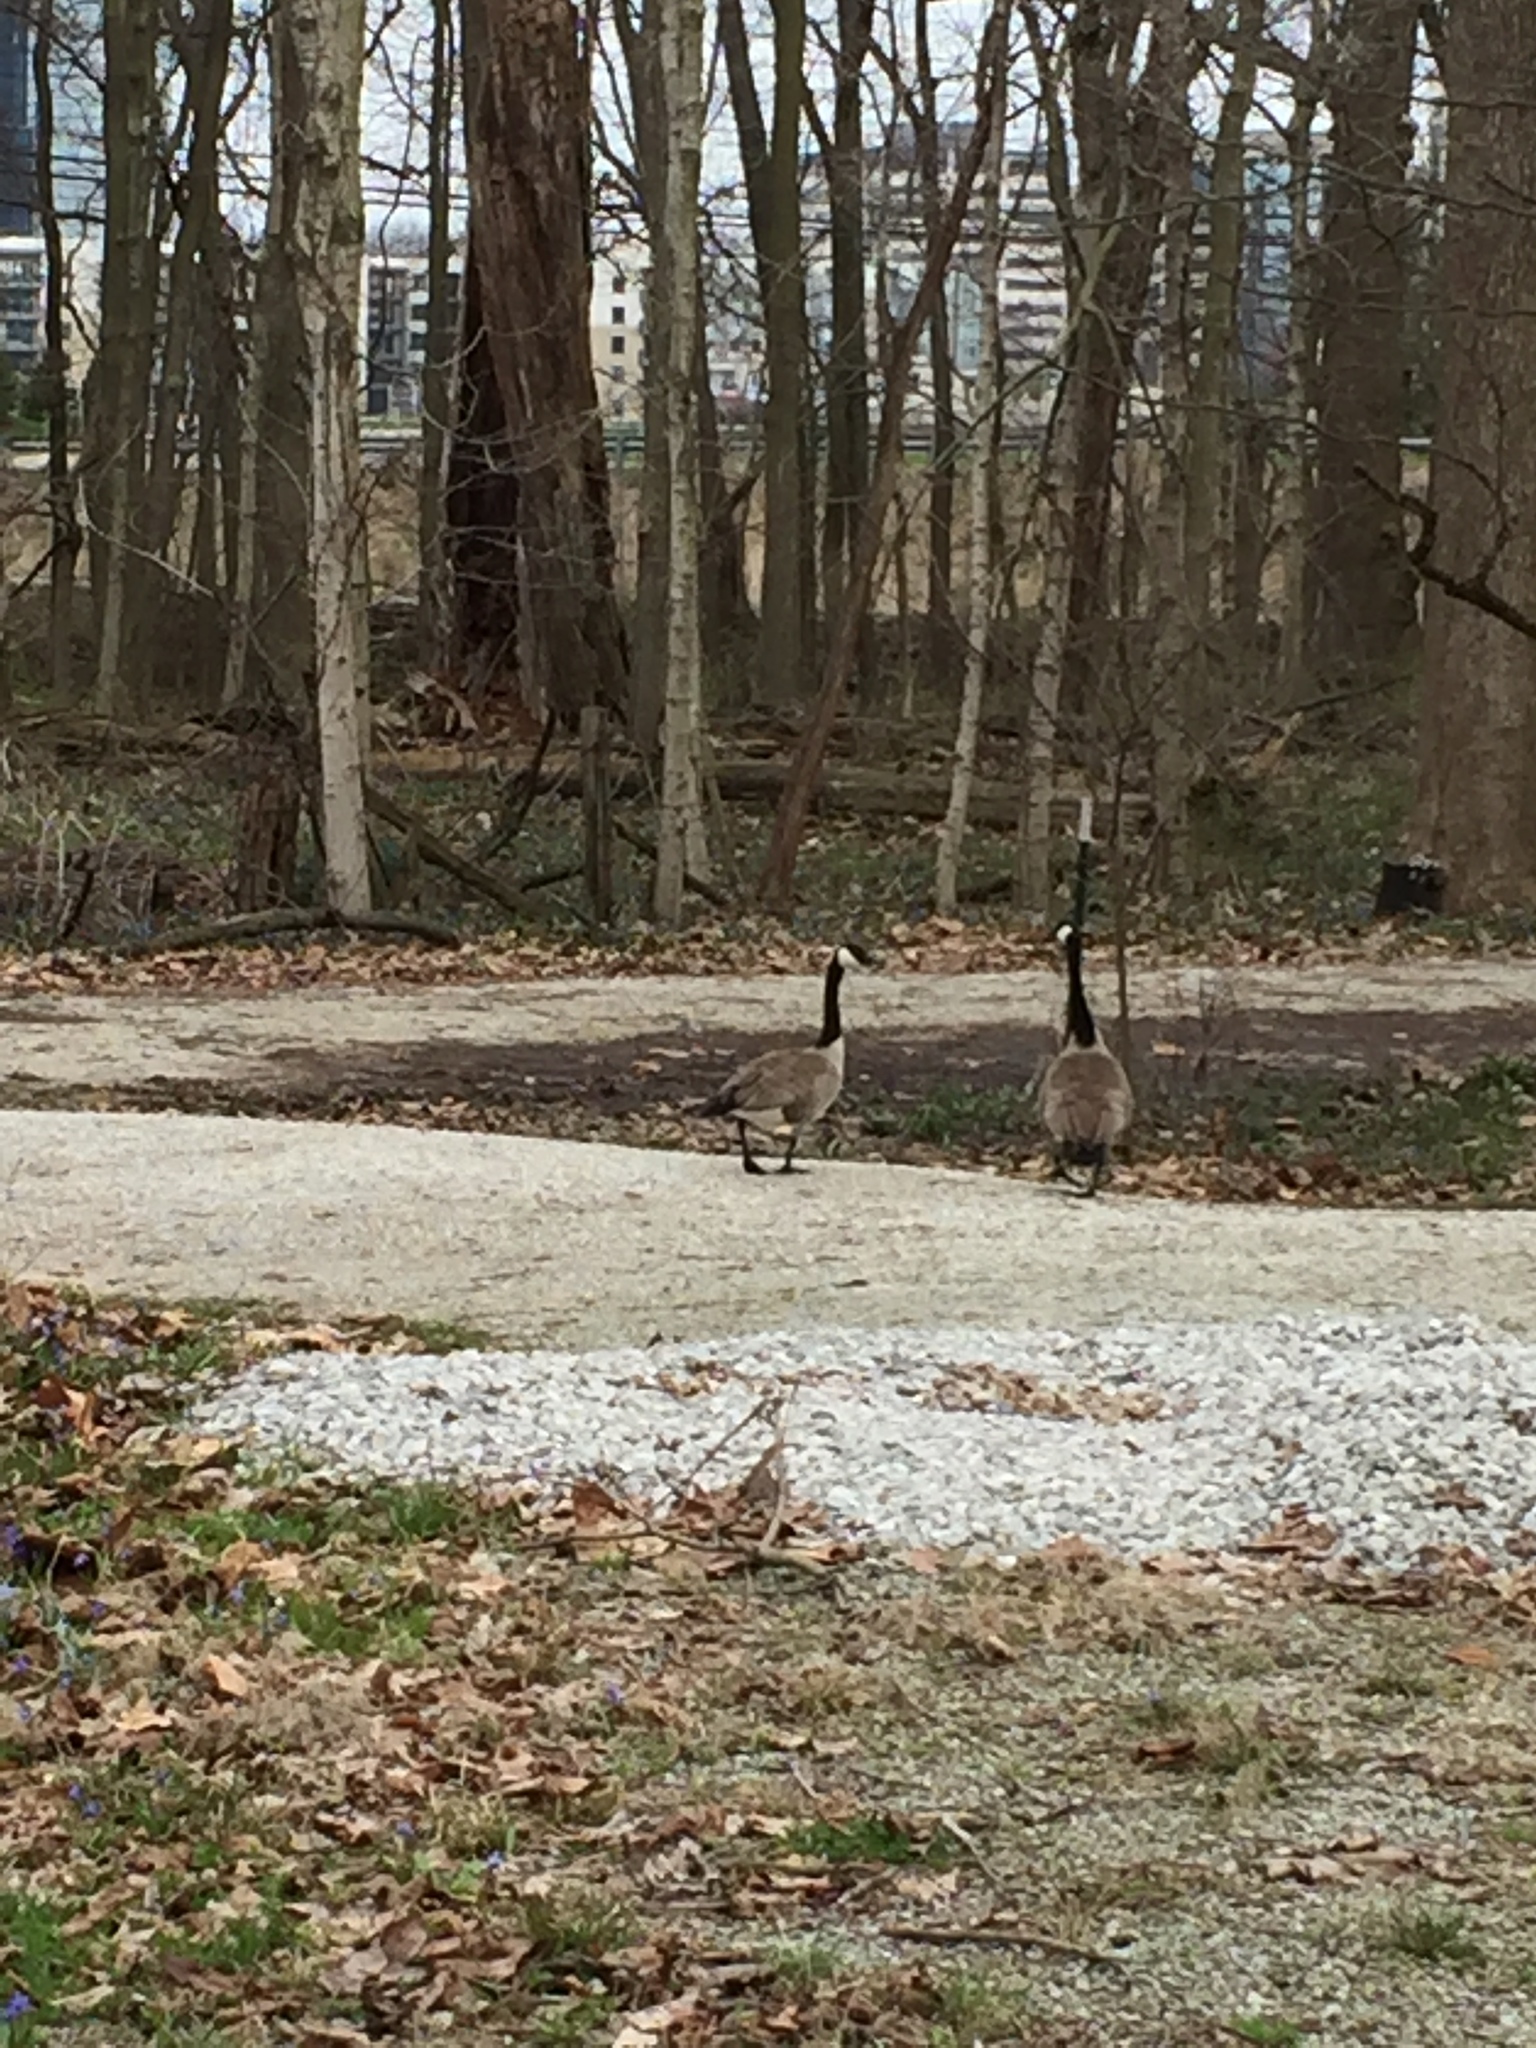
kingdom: Animalia
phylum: Chordata
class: Aves
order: Anseriformes
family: Anatidae
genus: Branta
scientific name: Branta canadensis
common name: Canada goose
